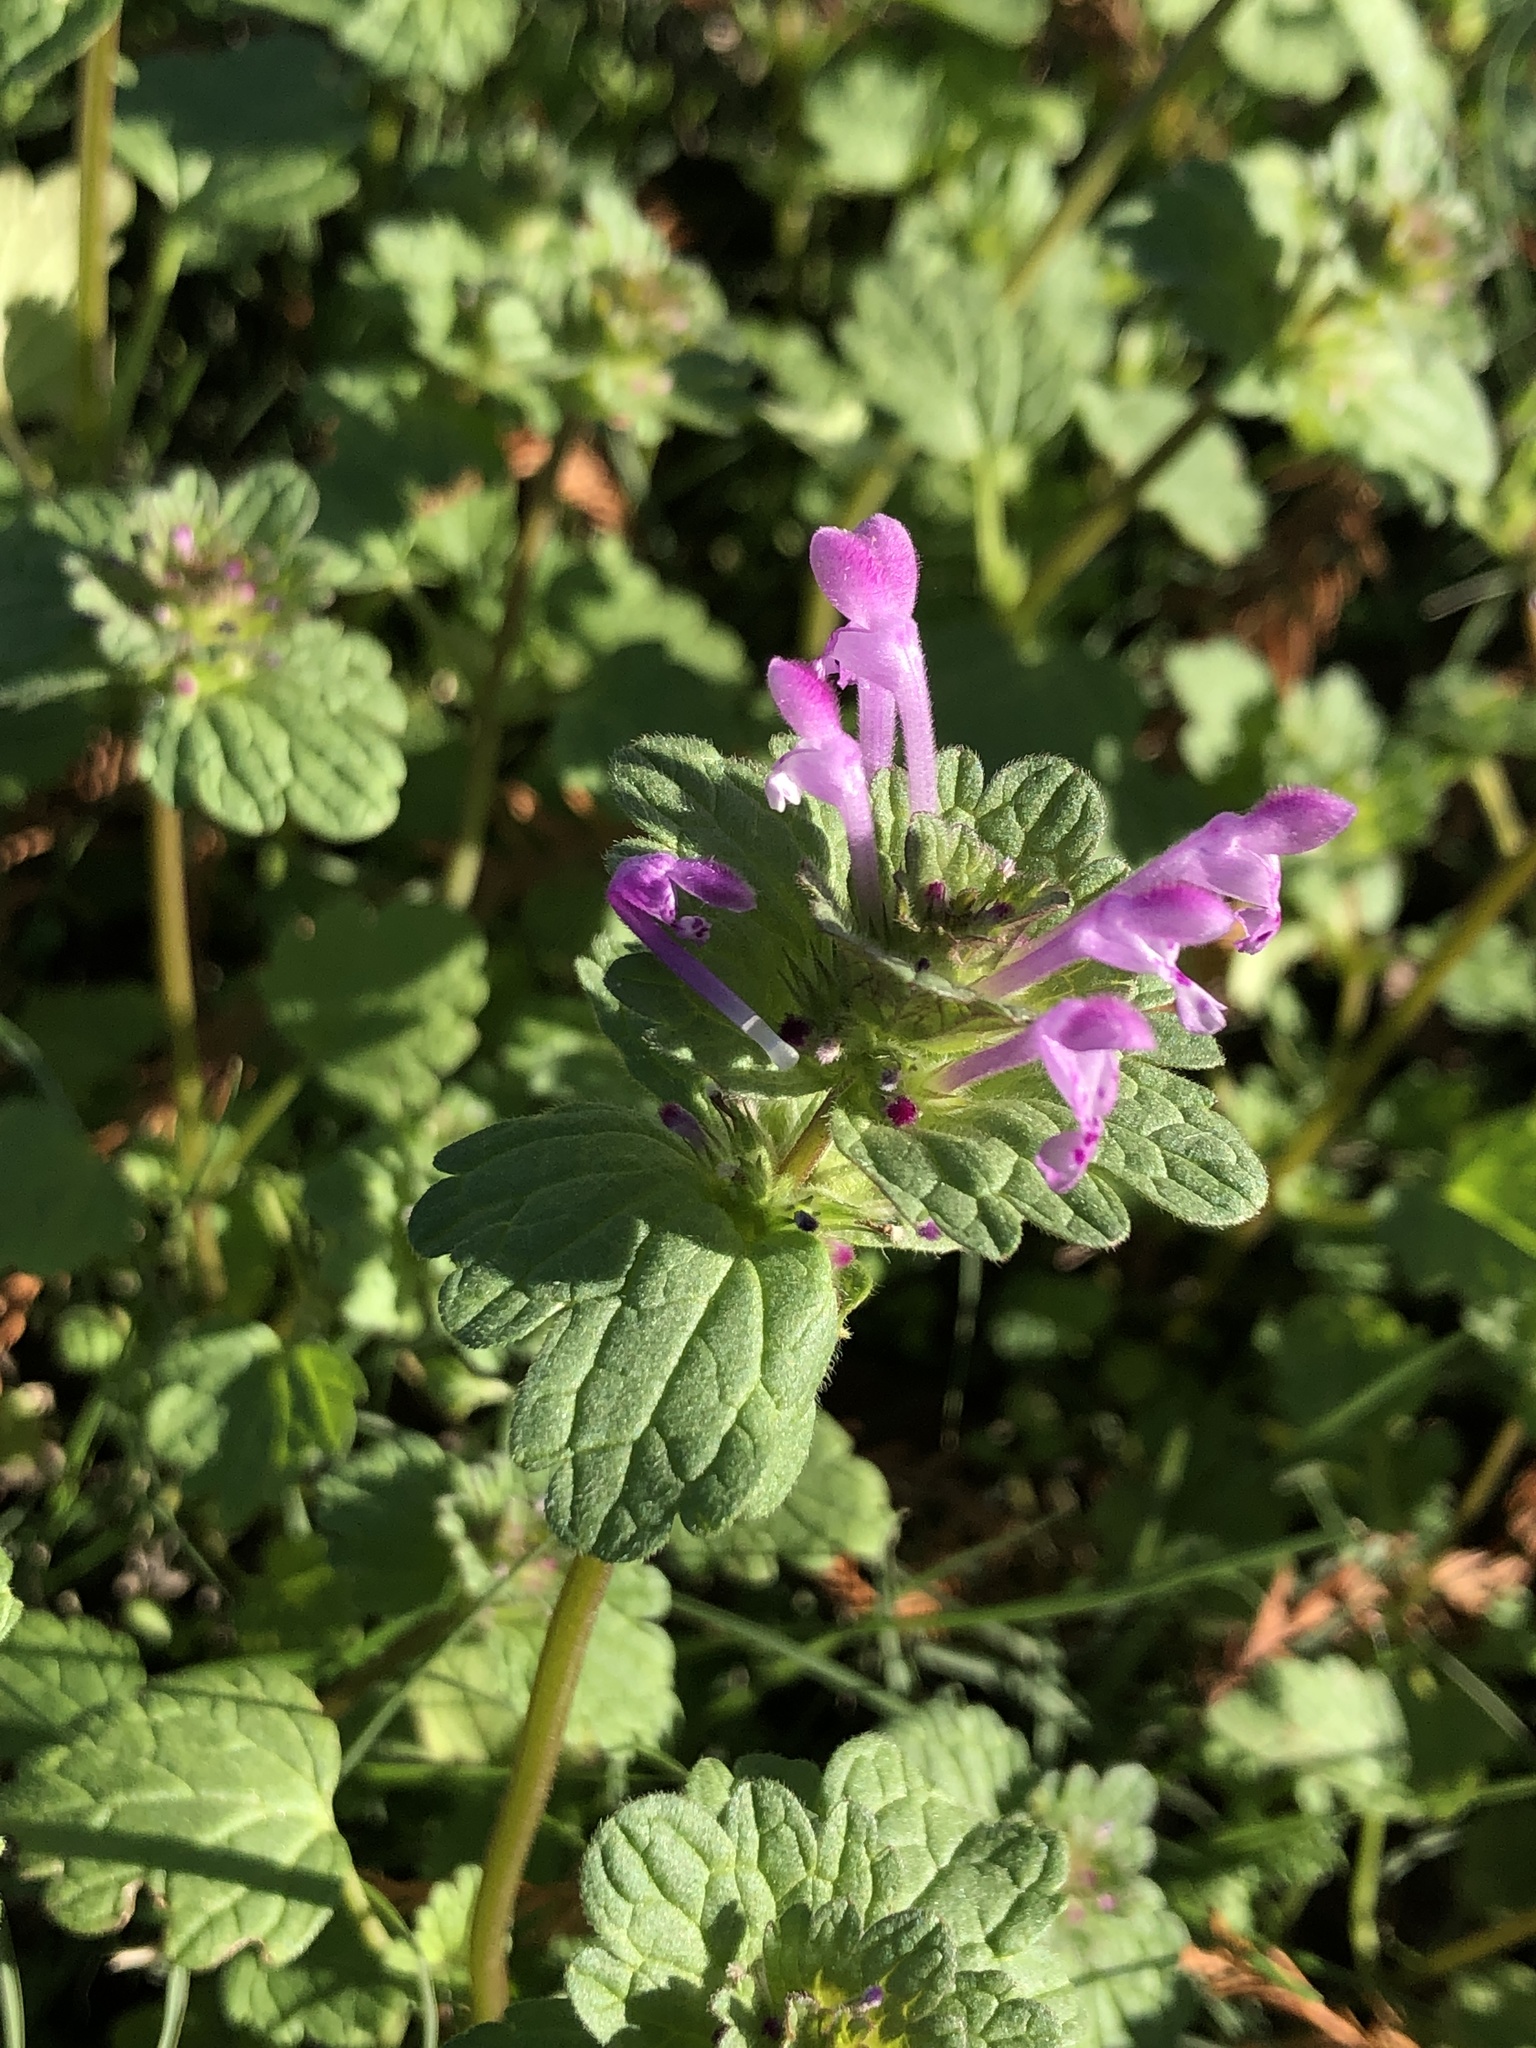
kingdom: Plantae
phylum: Tracheophyta
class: Magnoliopsida
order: Lamiales
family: Lamiaceae
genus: Lamium
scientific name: Lamium amplexicaule
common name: Henbit dead-nettle
